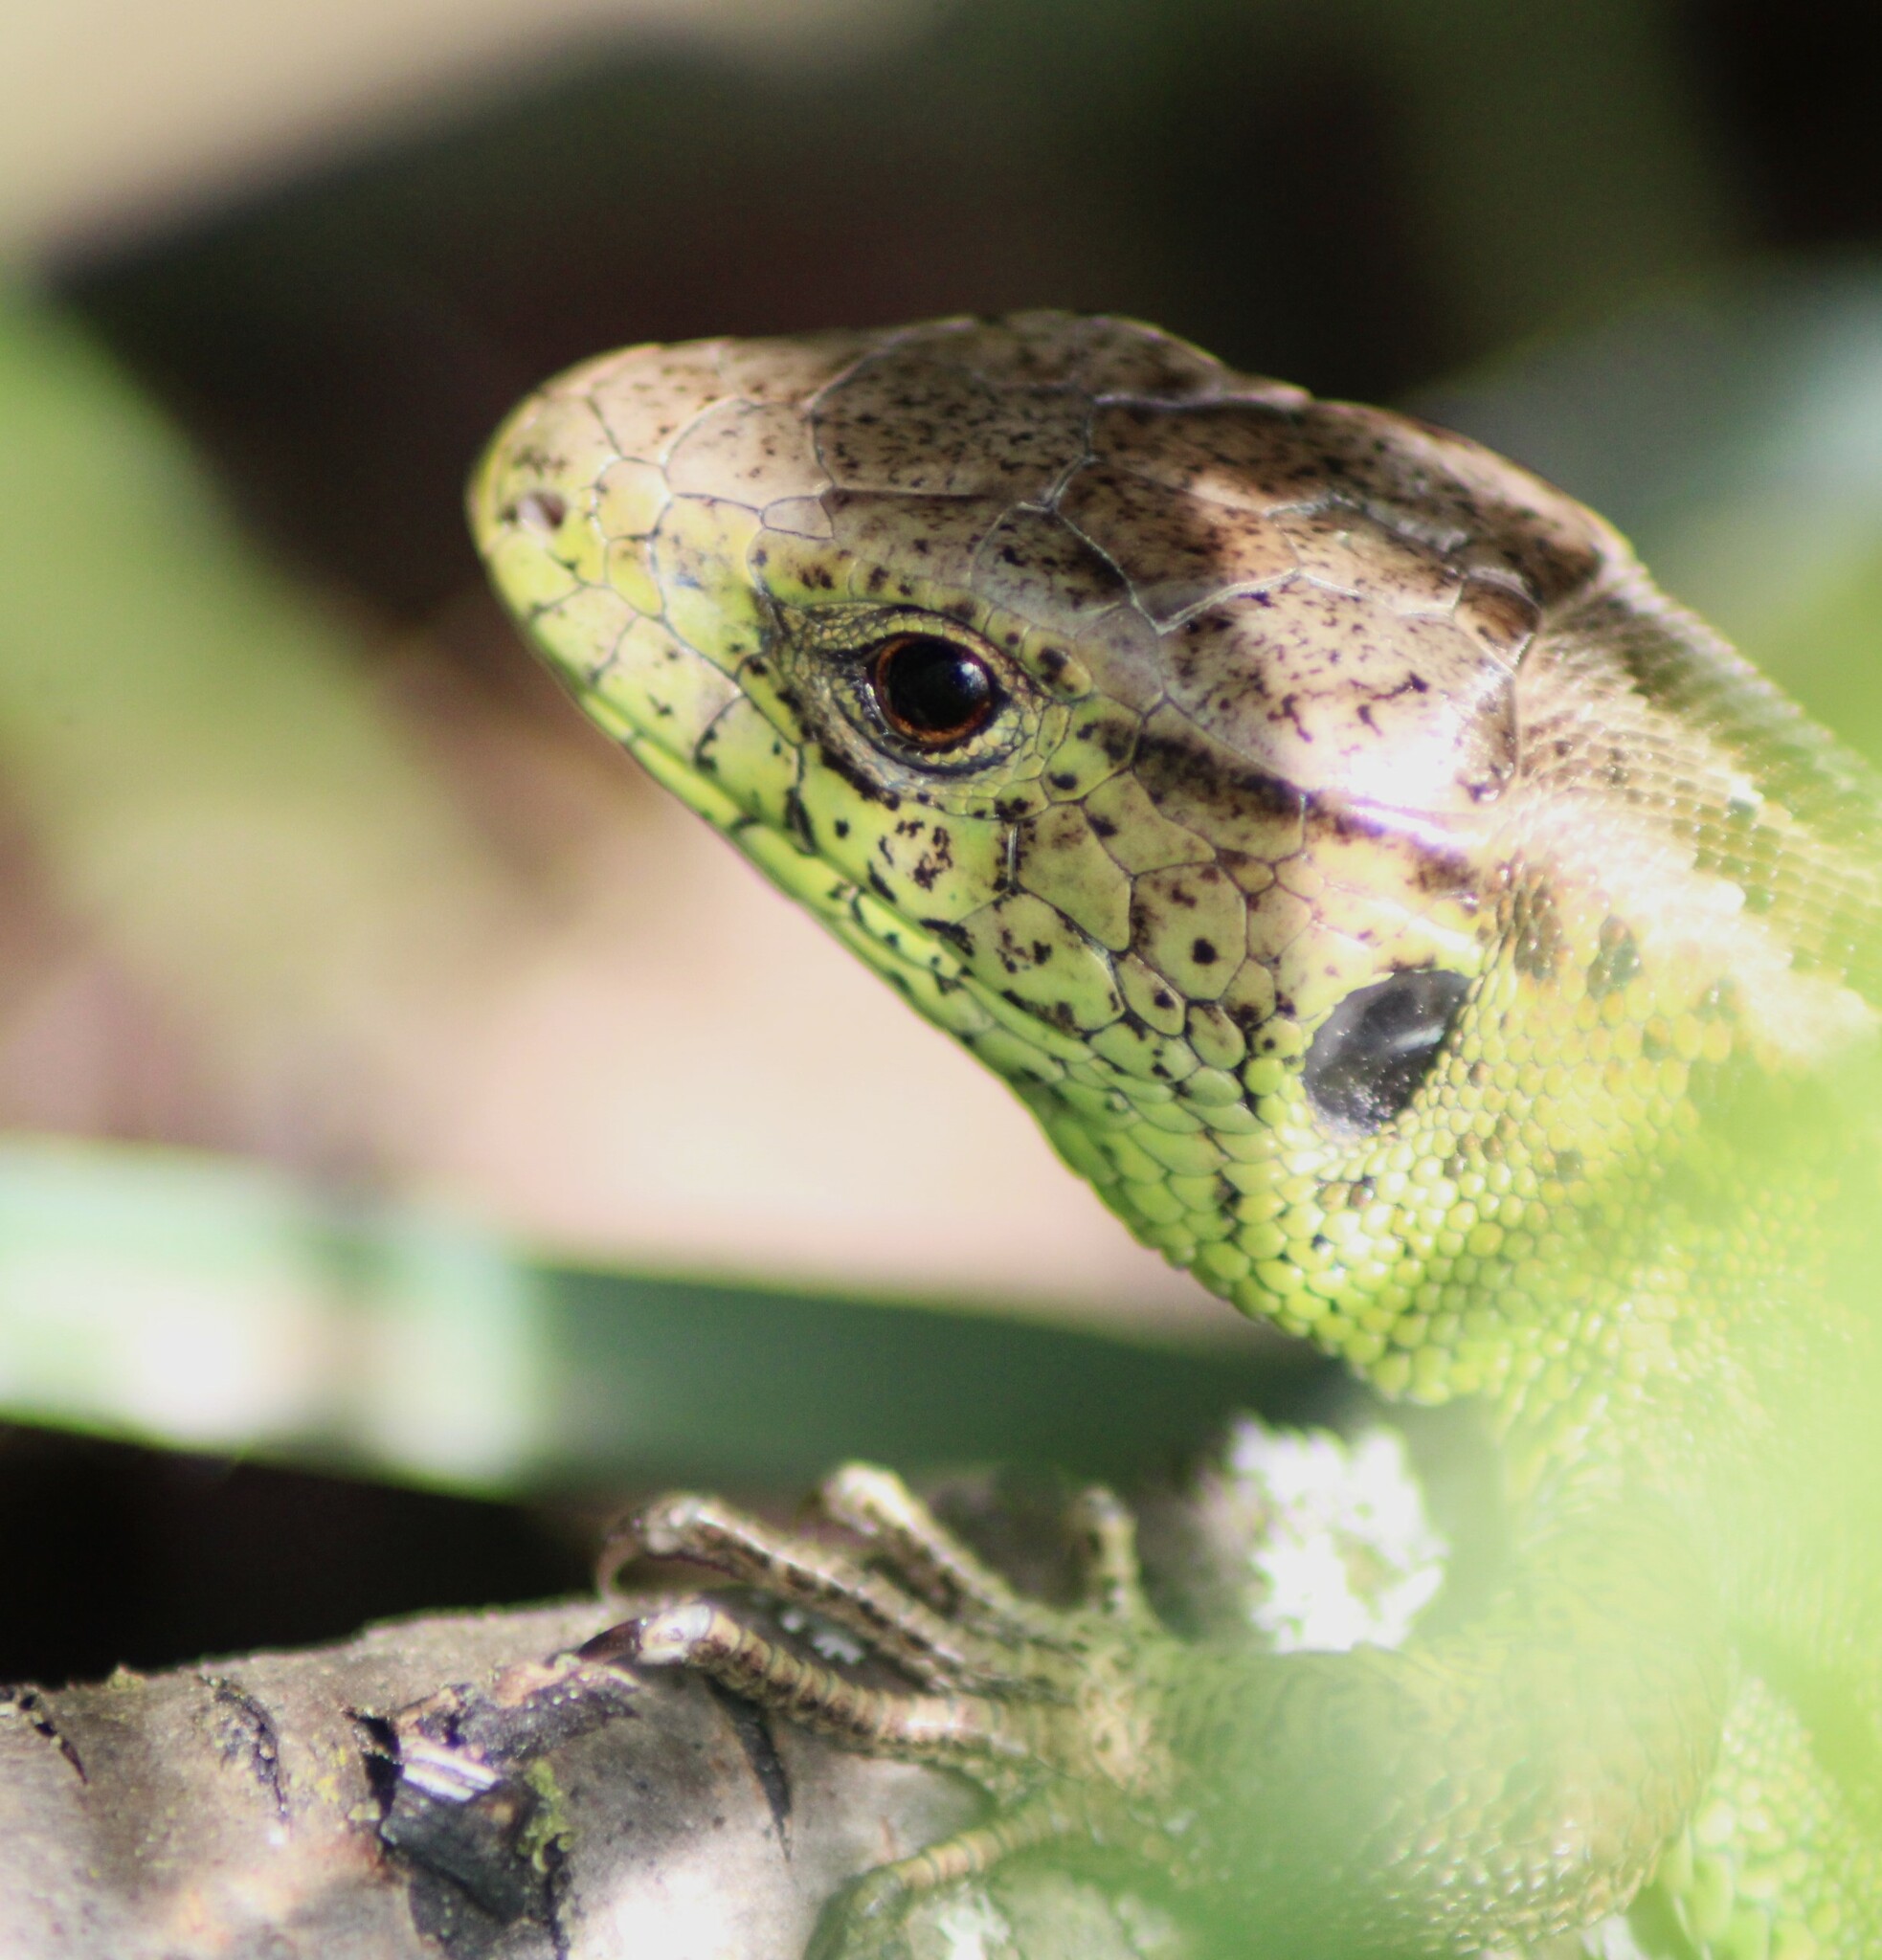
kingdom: Animalia
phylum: Chordata
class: Squamata
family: Lacertidae
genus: Lacerta
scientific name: Lacerta agilis
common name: Sand lizard
